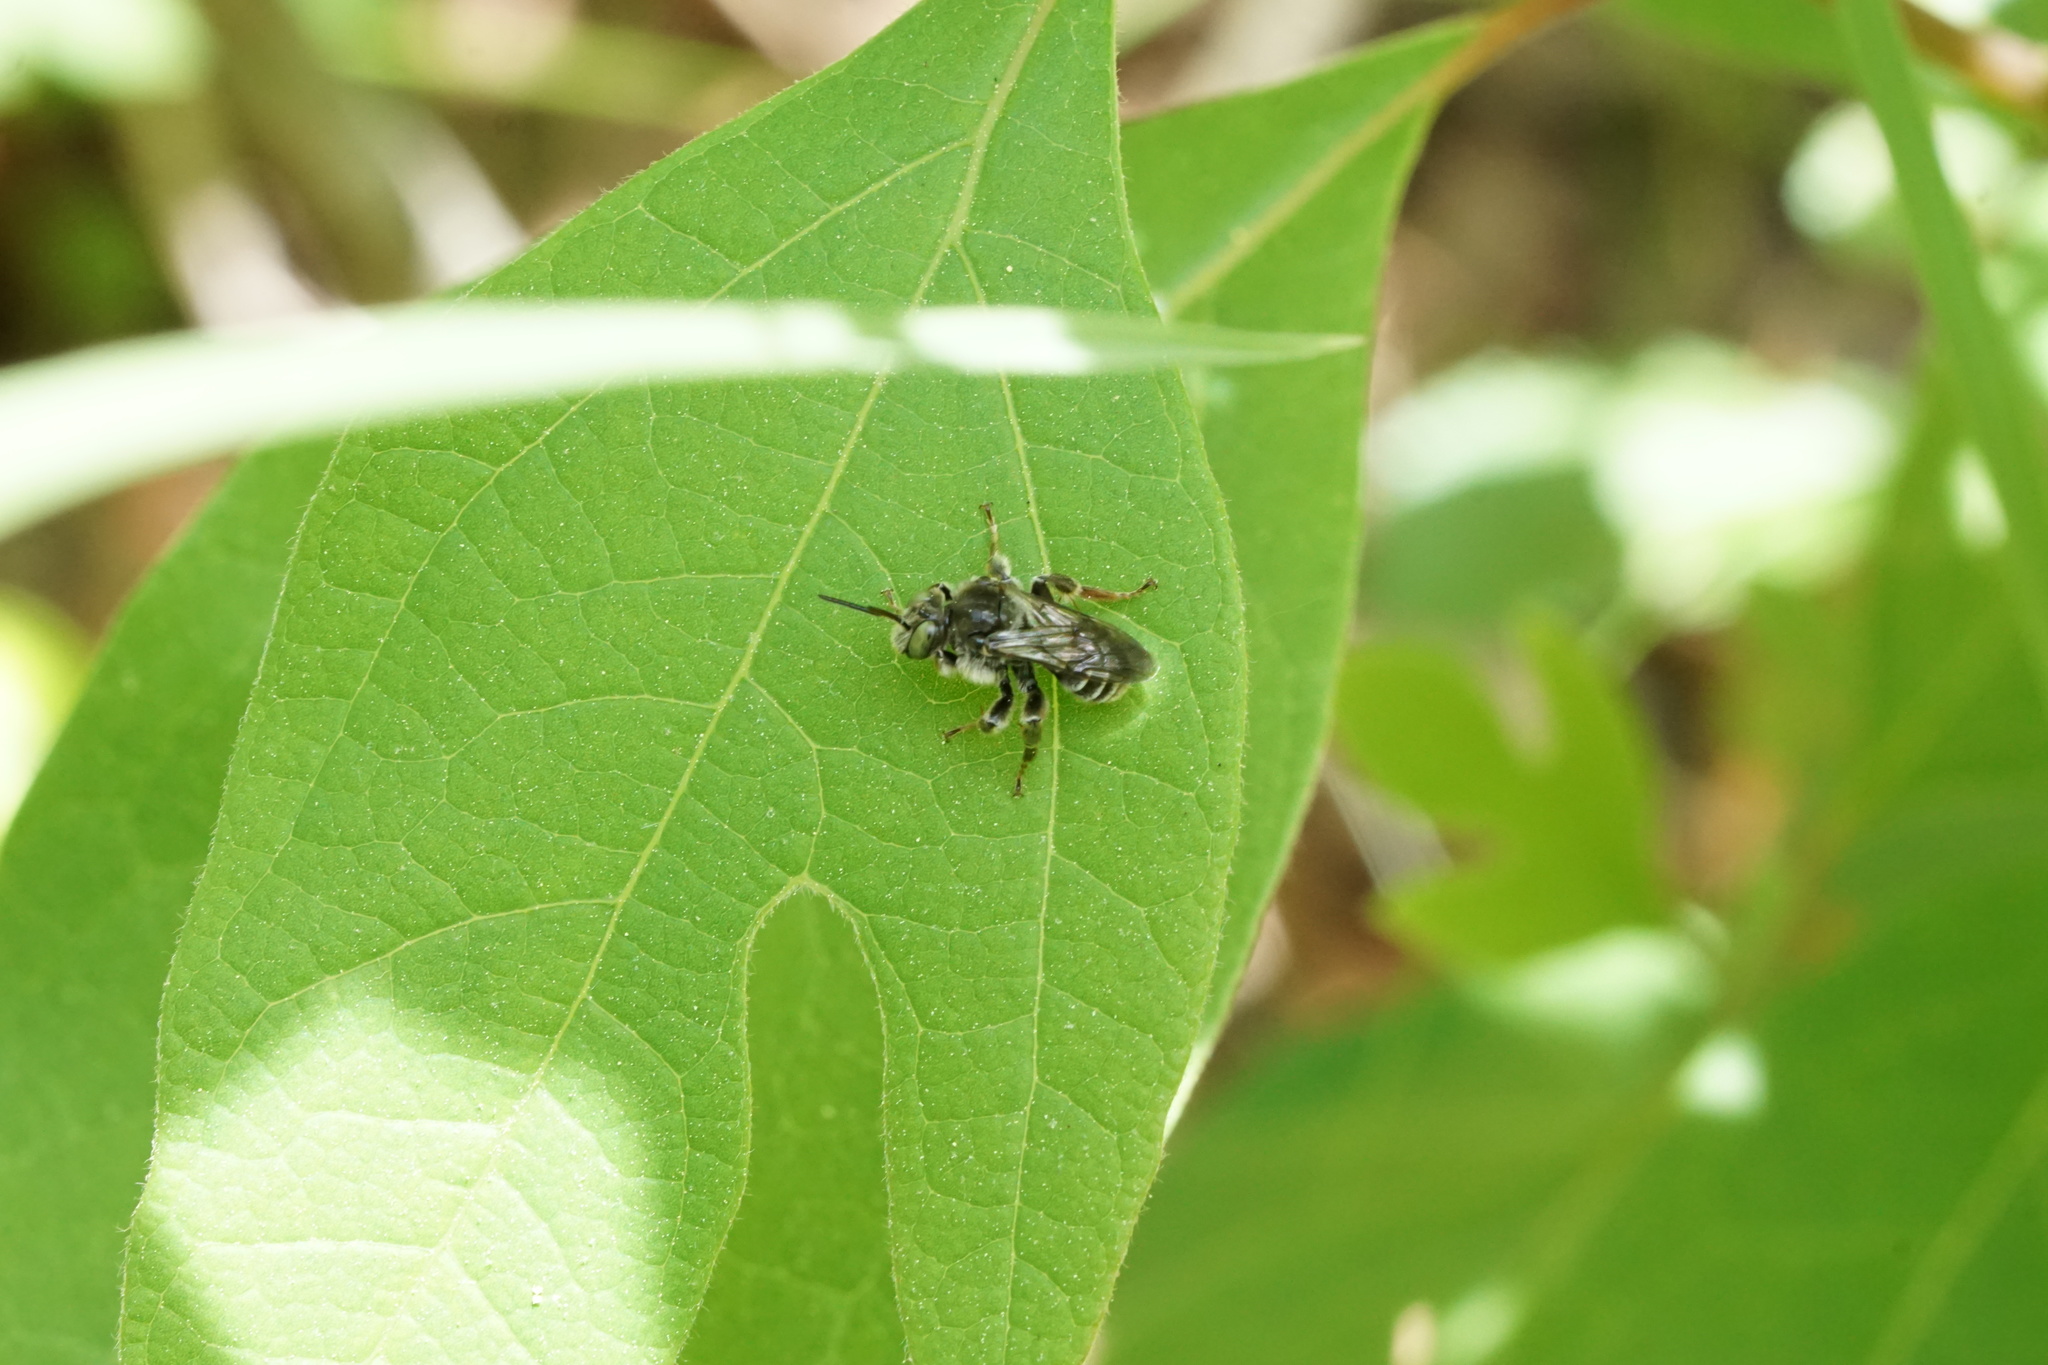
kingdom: Animalia
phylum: Arthropoda
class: Insecta
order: Hymenoptera
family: Apidae
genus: Epeoloides
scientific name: Epeoloides pilosulus
